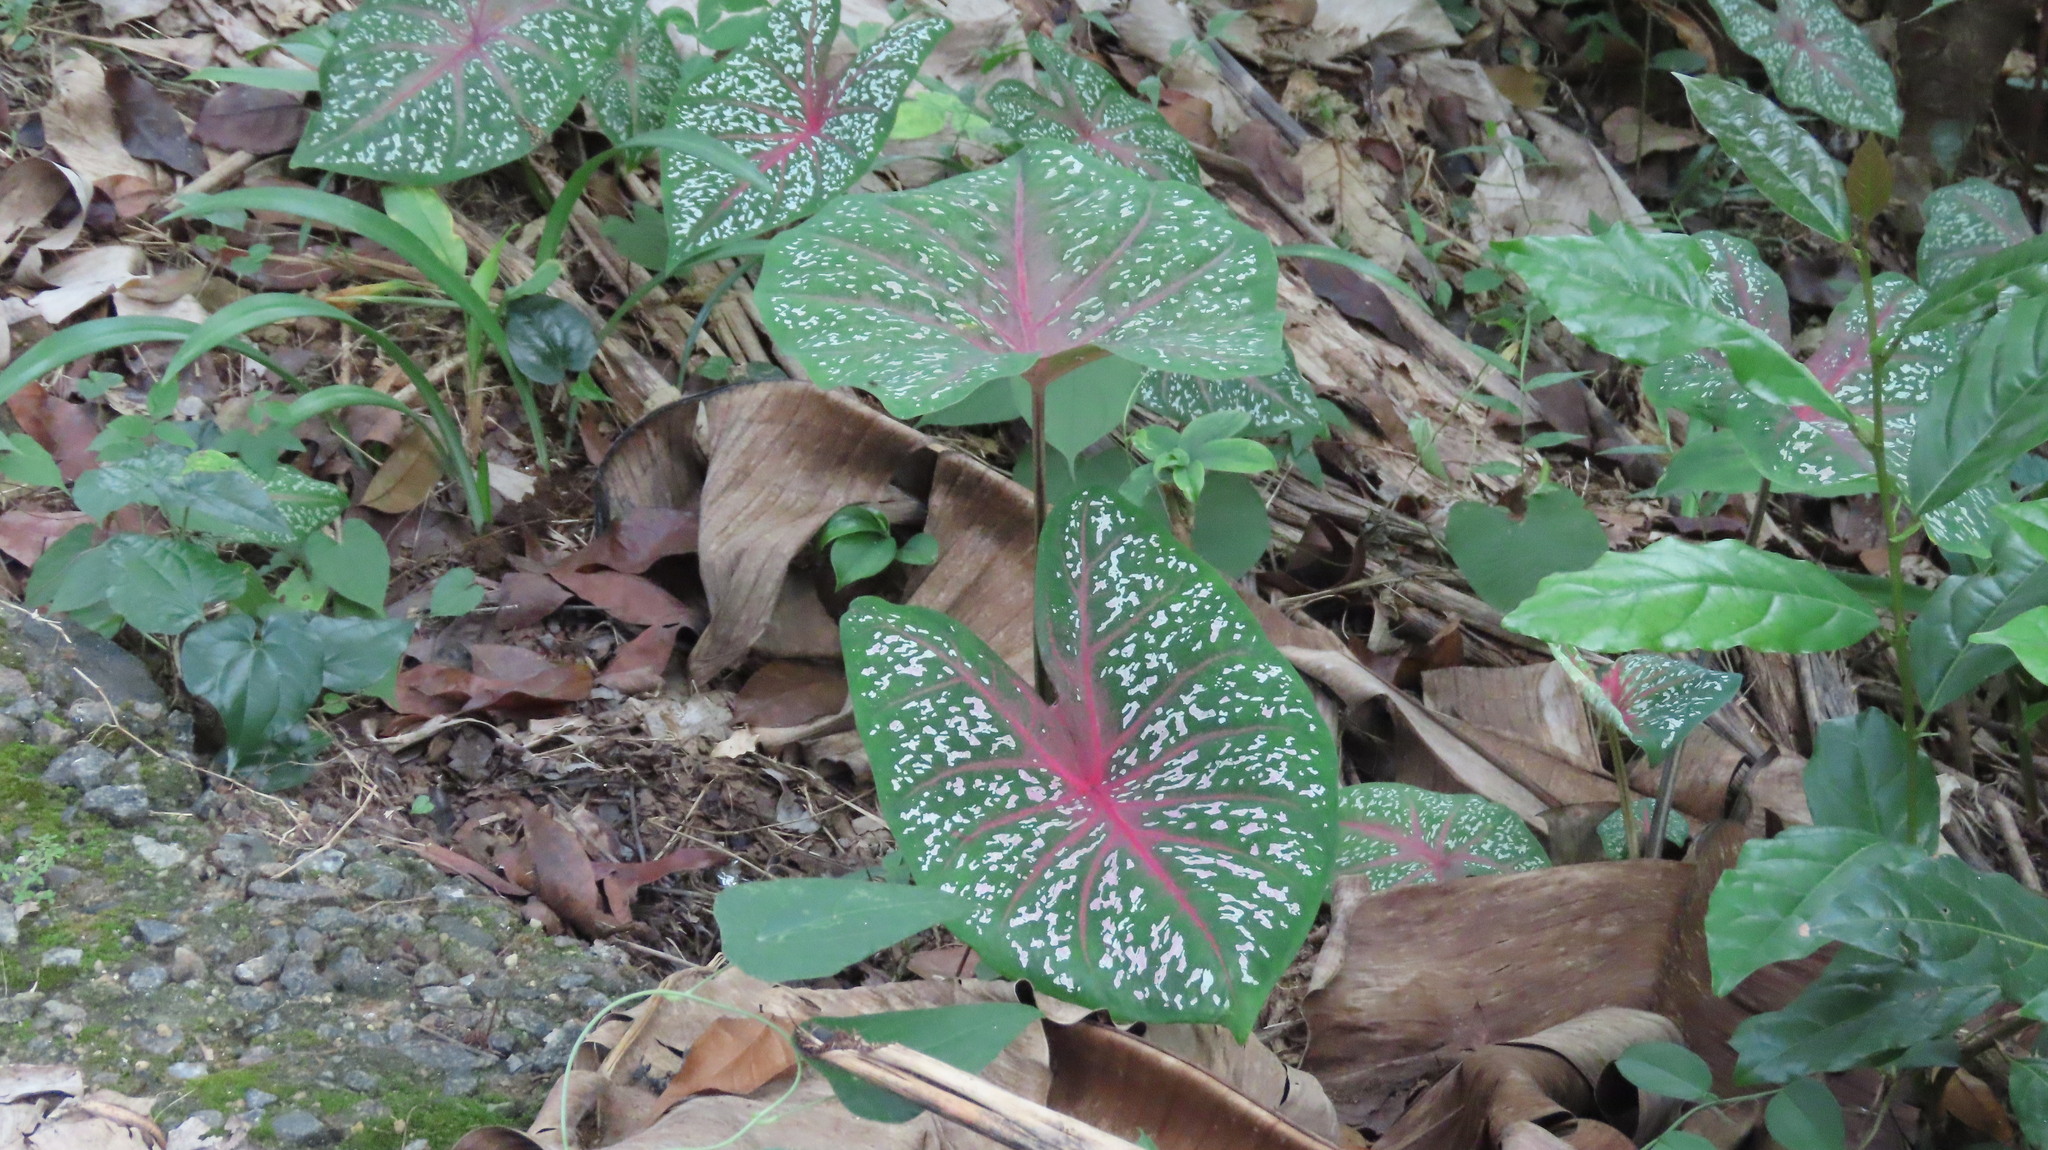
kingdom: Plantae
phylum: Tracheophyta
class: Liliopsida
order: Alismatales
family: Araceae
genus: Caladium
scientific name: Caladium bicolor
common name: Artist's pallet
